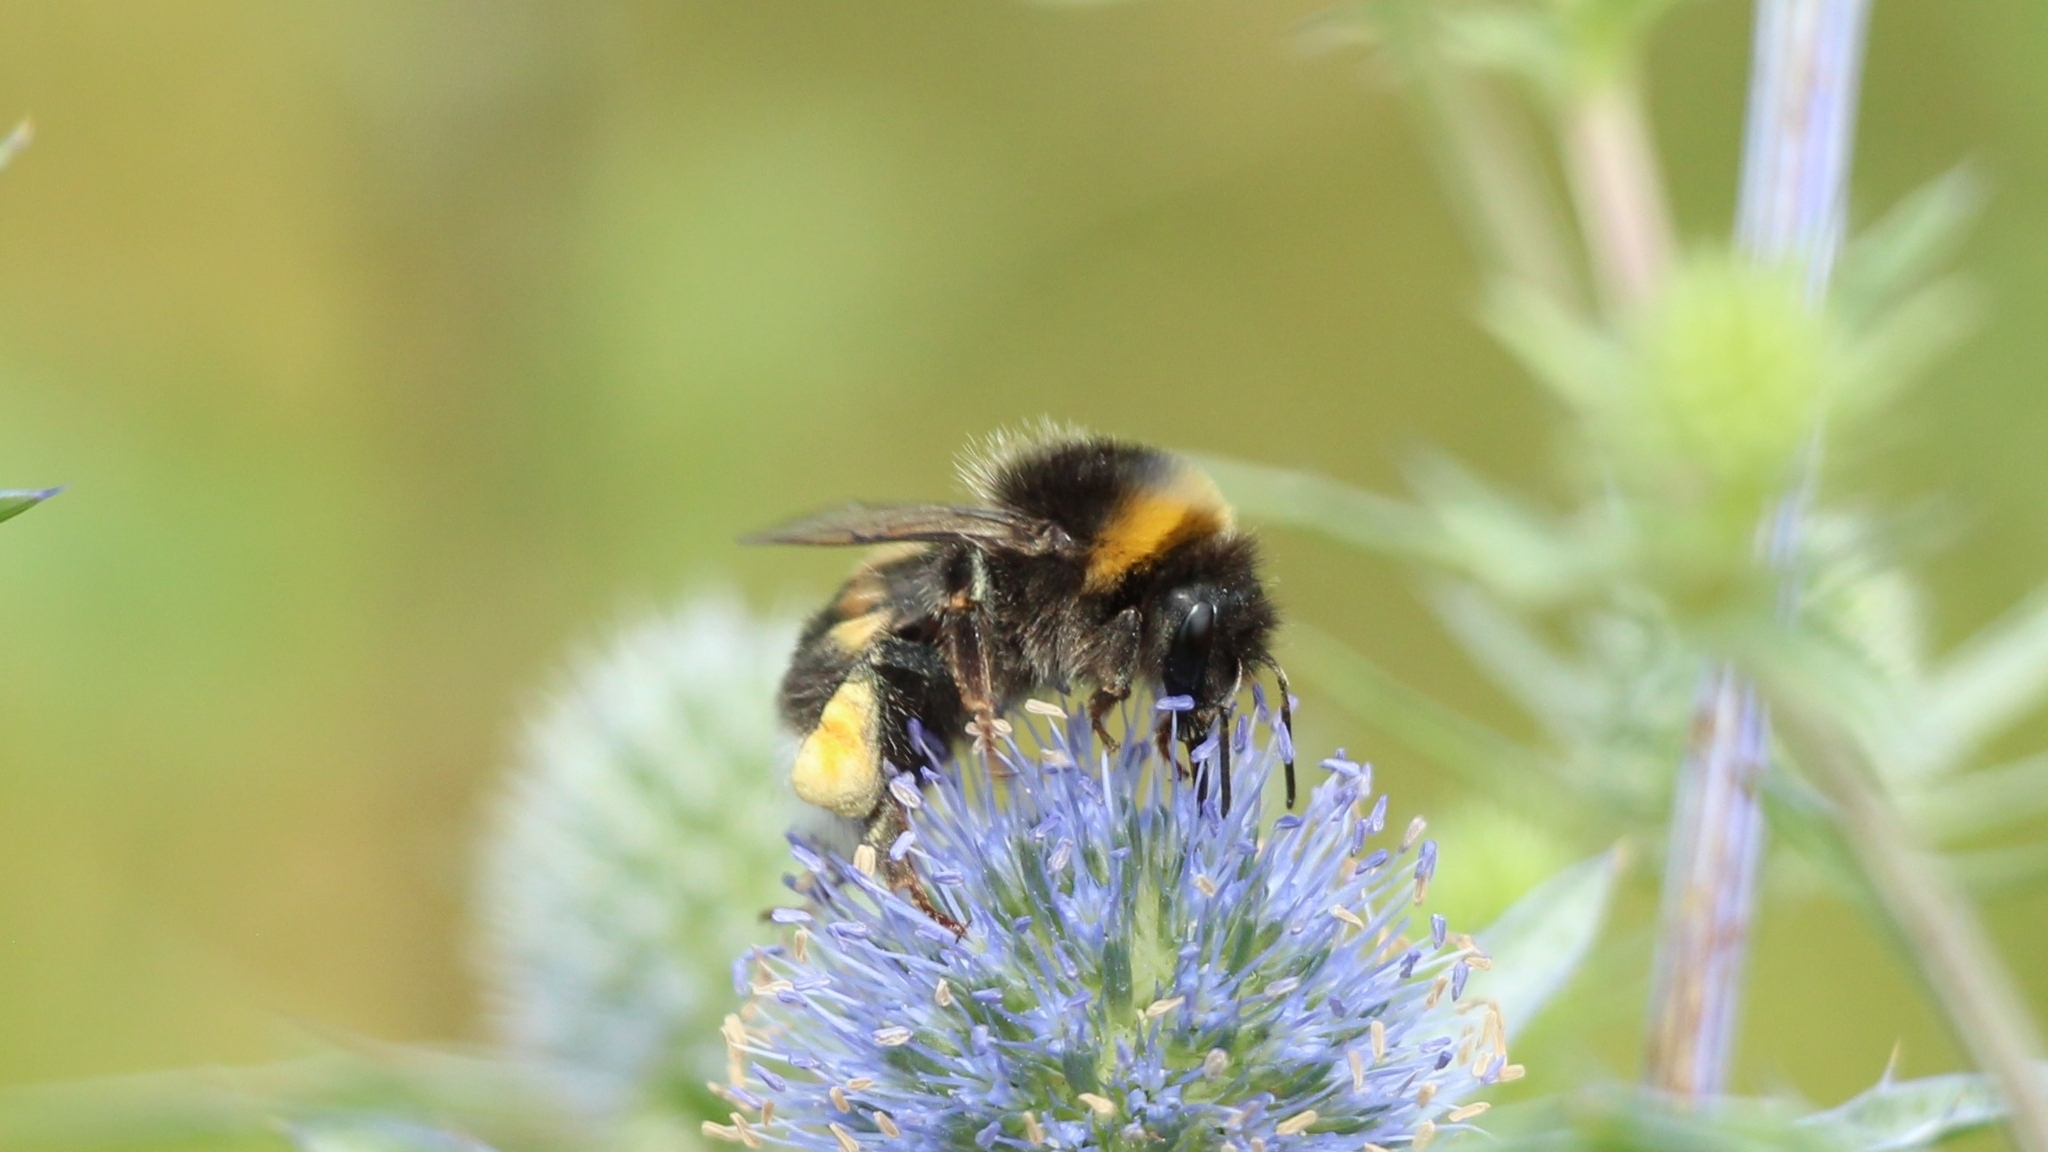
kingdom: Animalia
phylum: Arthropoda
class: Insecta
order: Hymenoptera
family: Apidae
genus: Bombus
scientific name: Bombus
